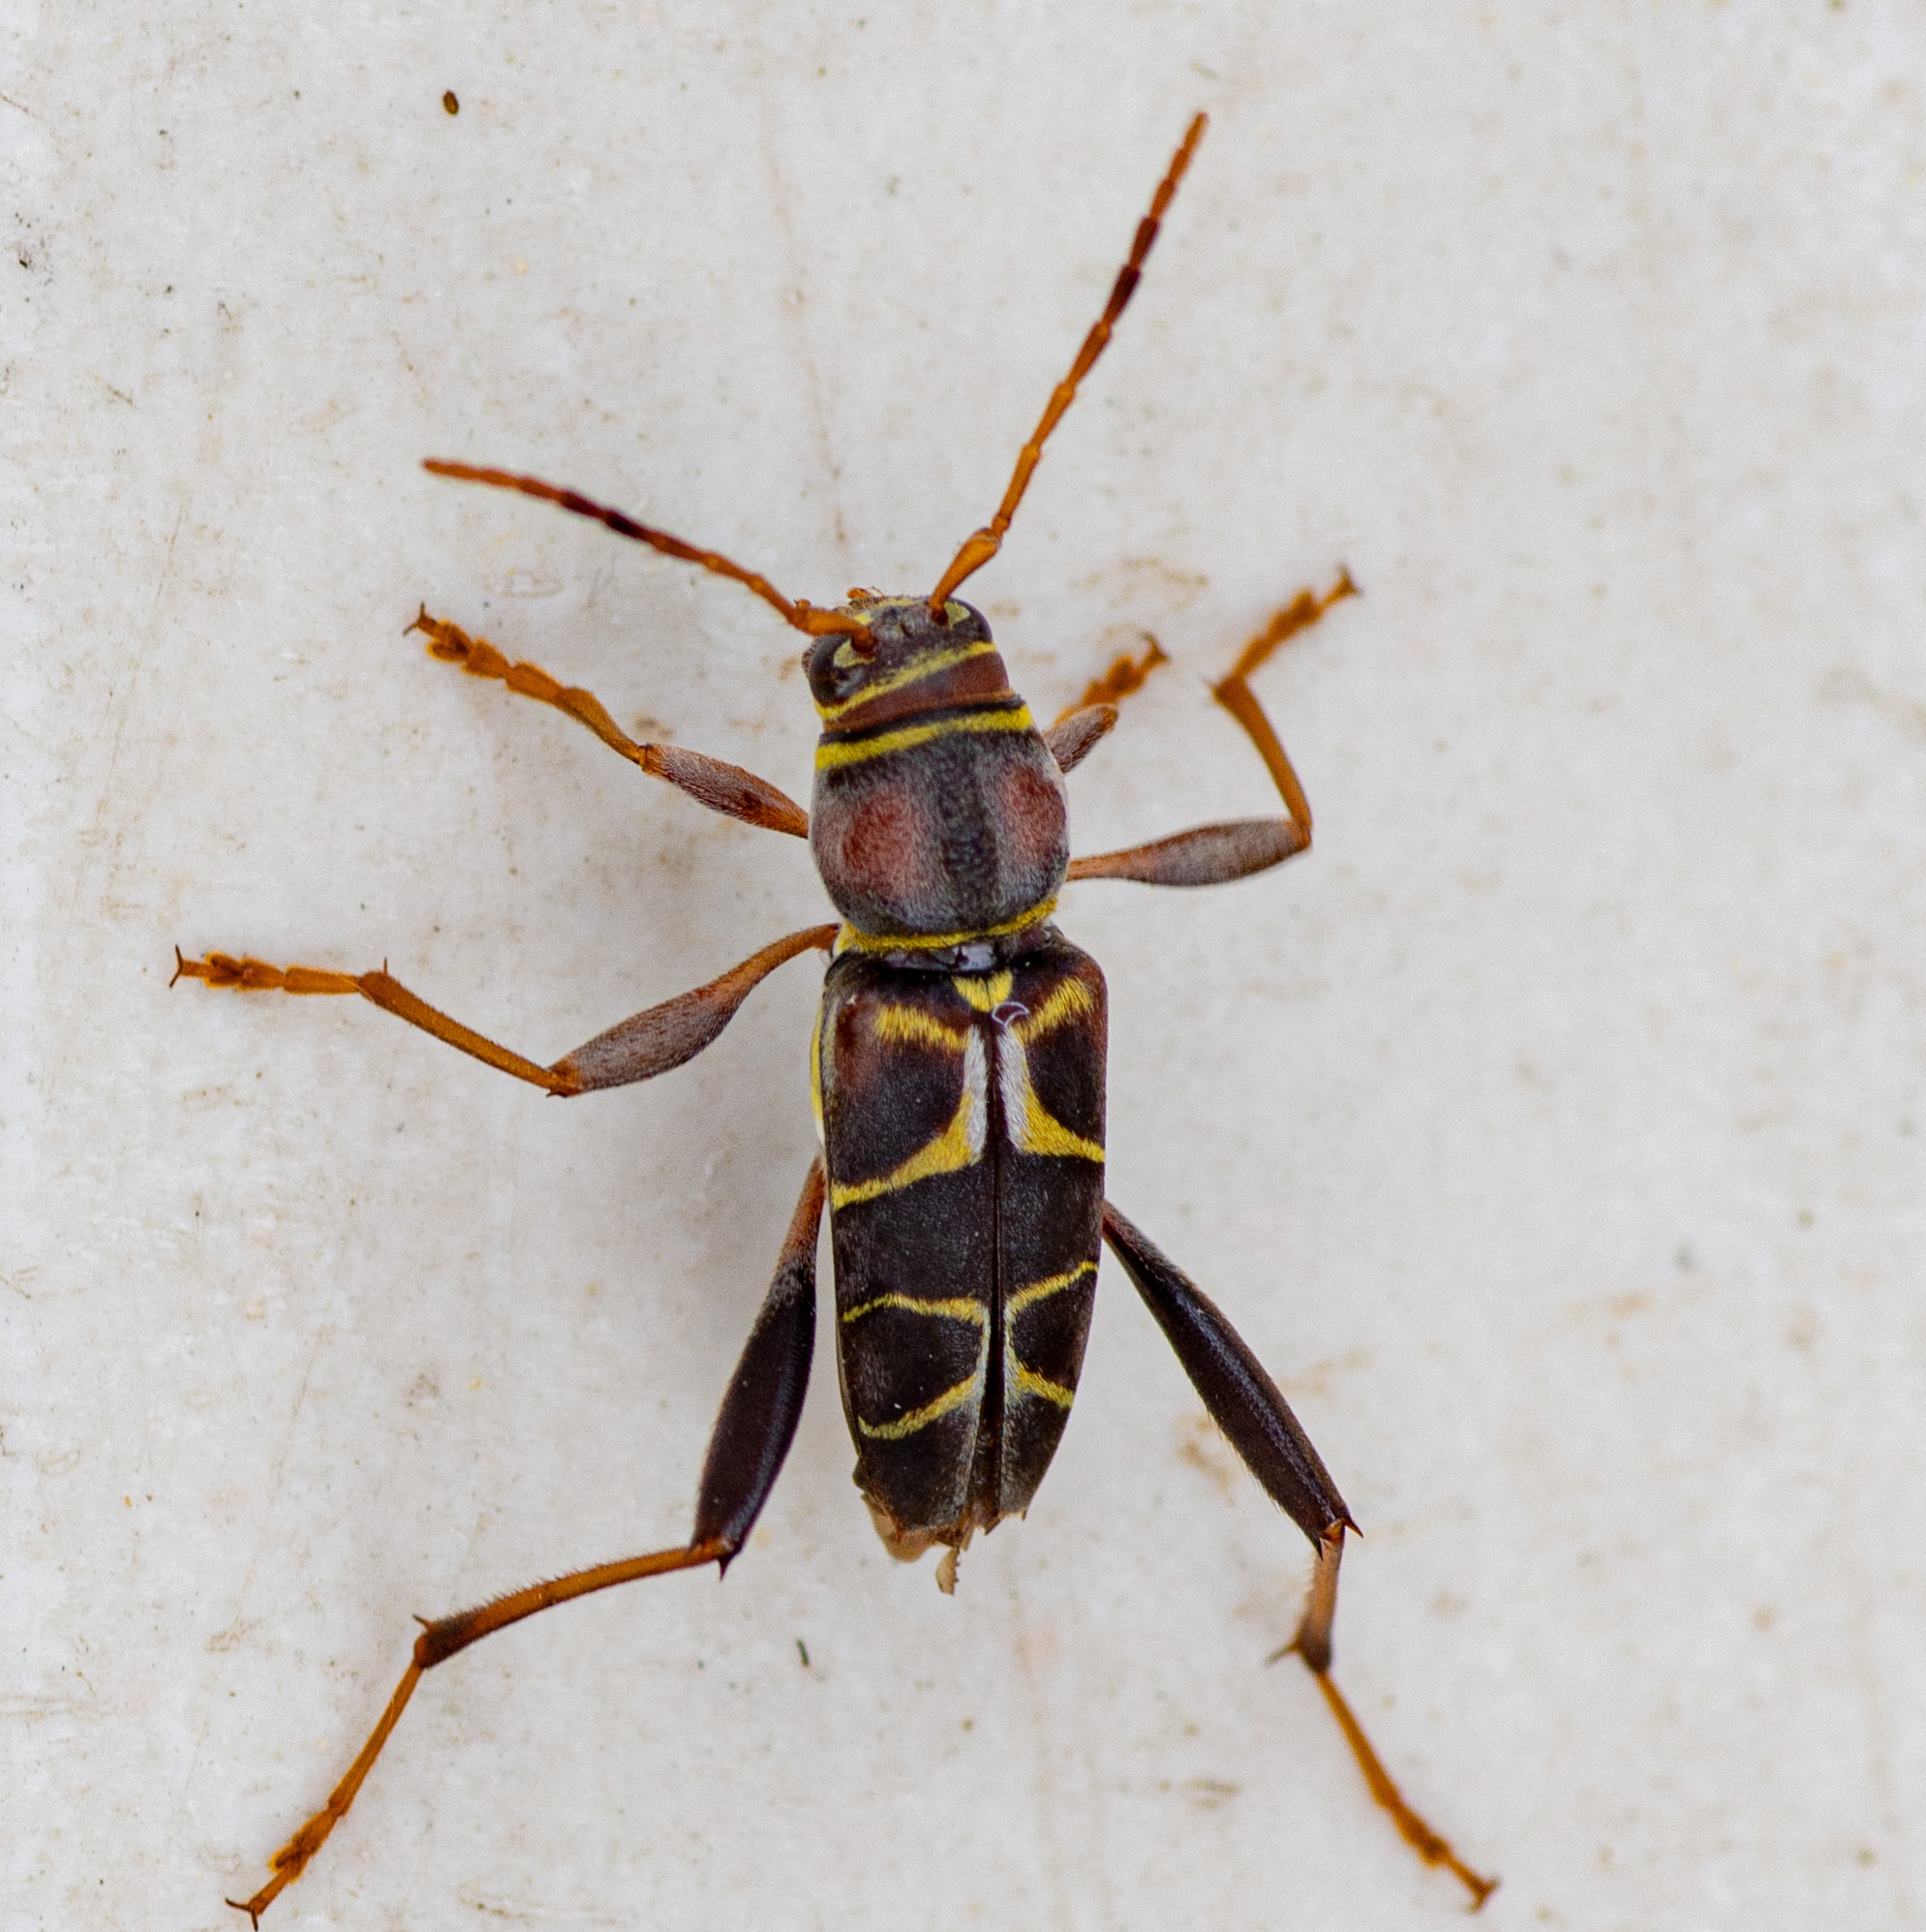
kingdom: Animalia
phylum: Arthropoda
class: Insecta
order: Coleoptera
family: Cerambycidae
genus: Neoclytus
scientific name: Neoclytus mucronatus
